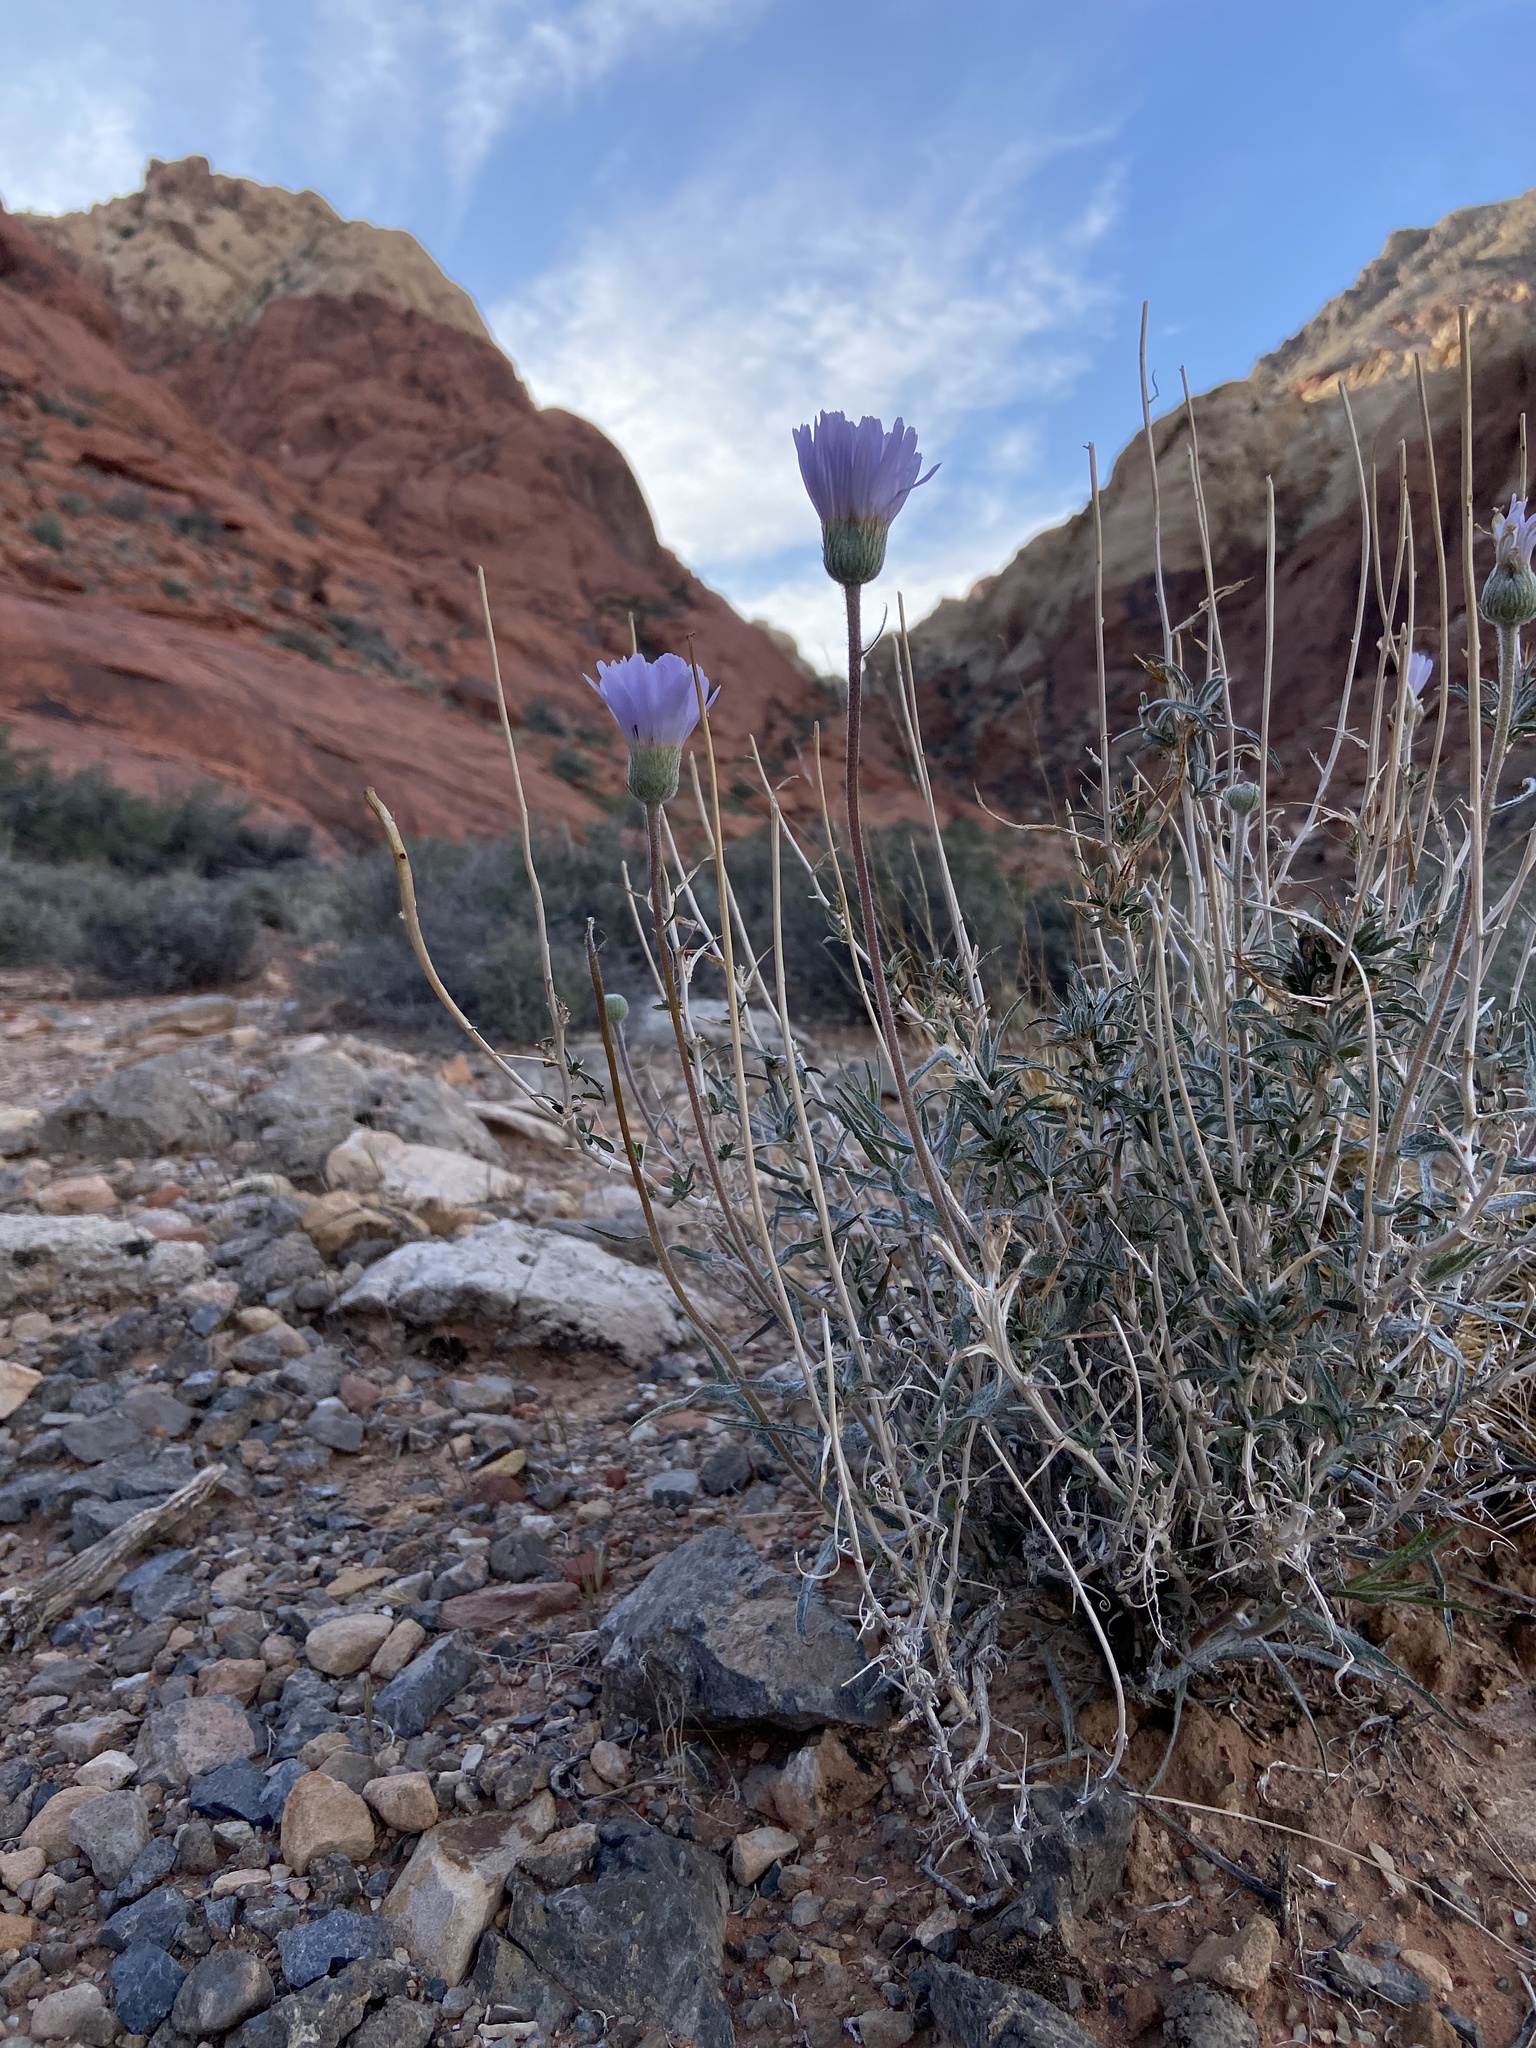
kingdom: Plantae
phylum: Tracheophyta
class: Magnoliopsida
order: Asterales
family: Asteraceae
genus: Xylorhiza
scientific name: Xylorhiza tortifolia
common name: Hurt-leaf woody-aster
